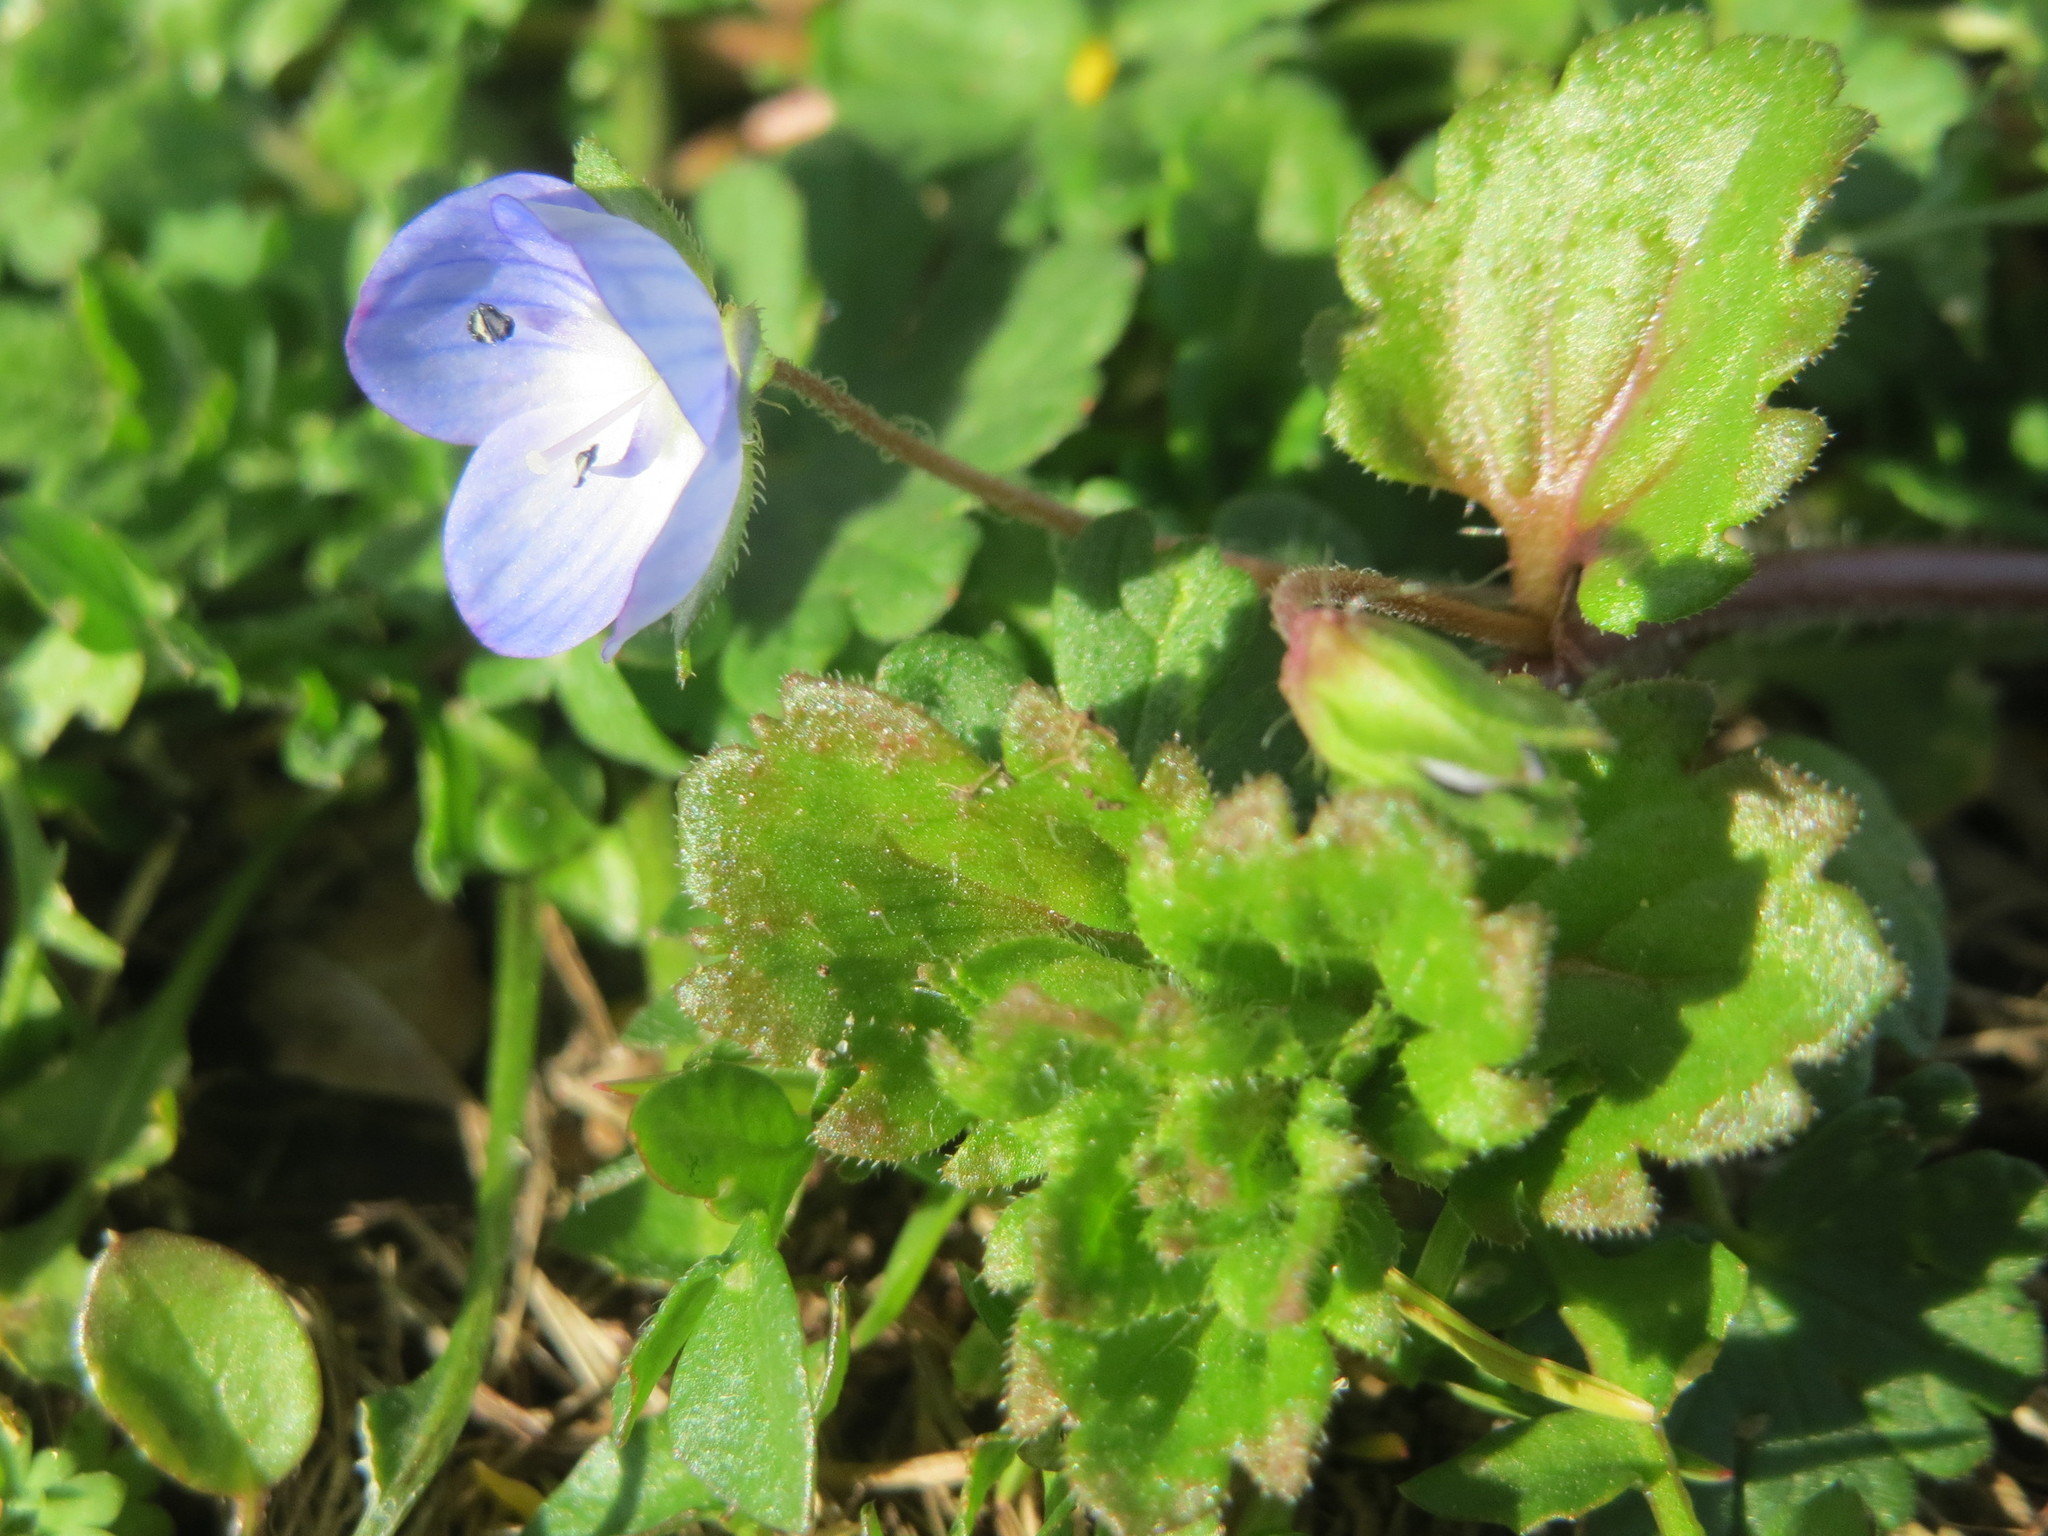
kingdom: Plantae
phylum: Tracheophyta
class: Magnoliopsida
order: Lamiales
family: Plantaginaceae
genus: Veronica
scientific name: Veronica persica
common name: Common field-speedwell
